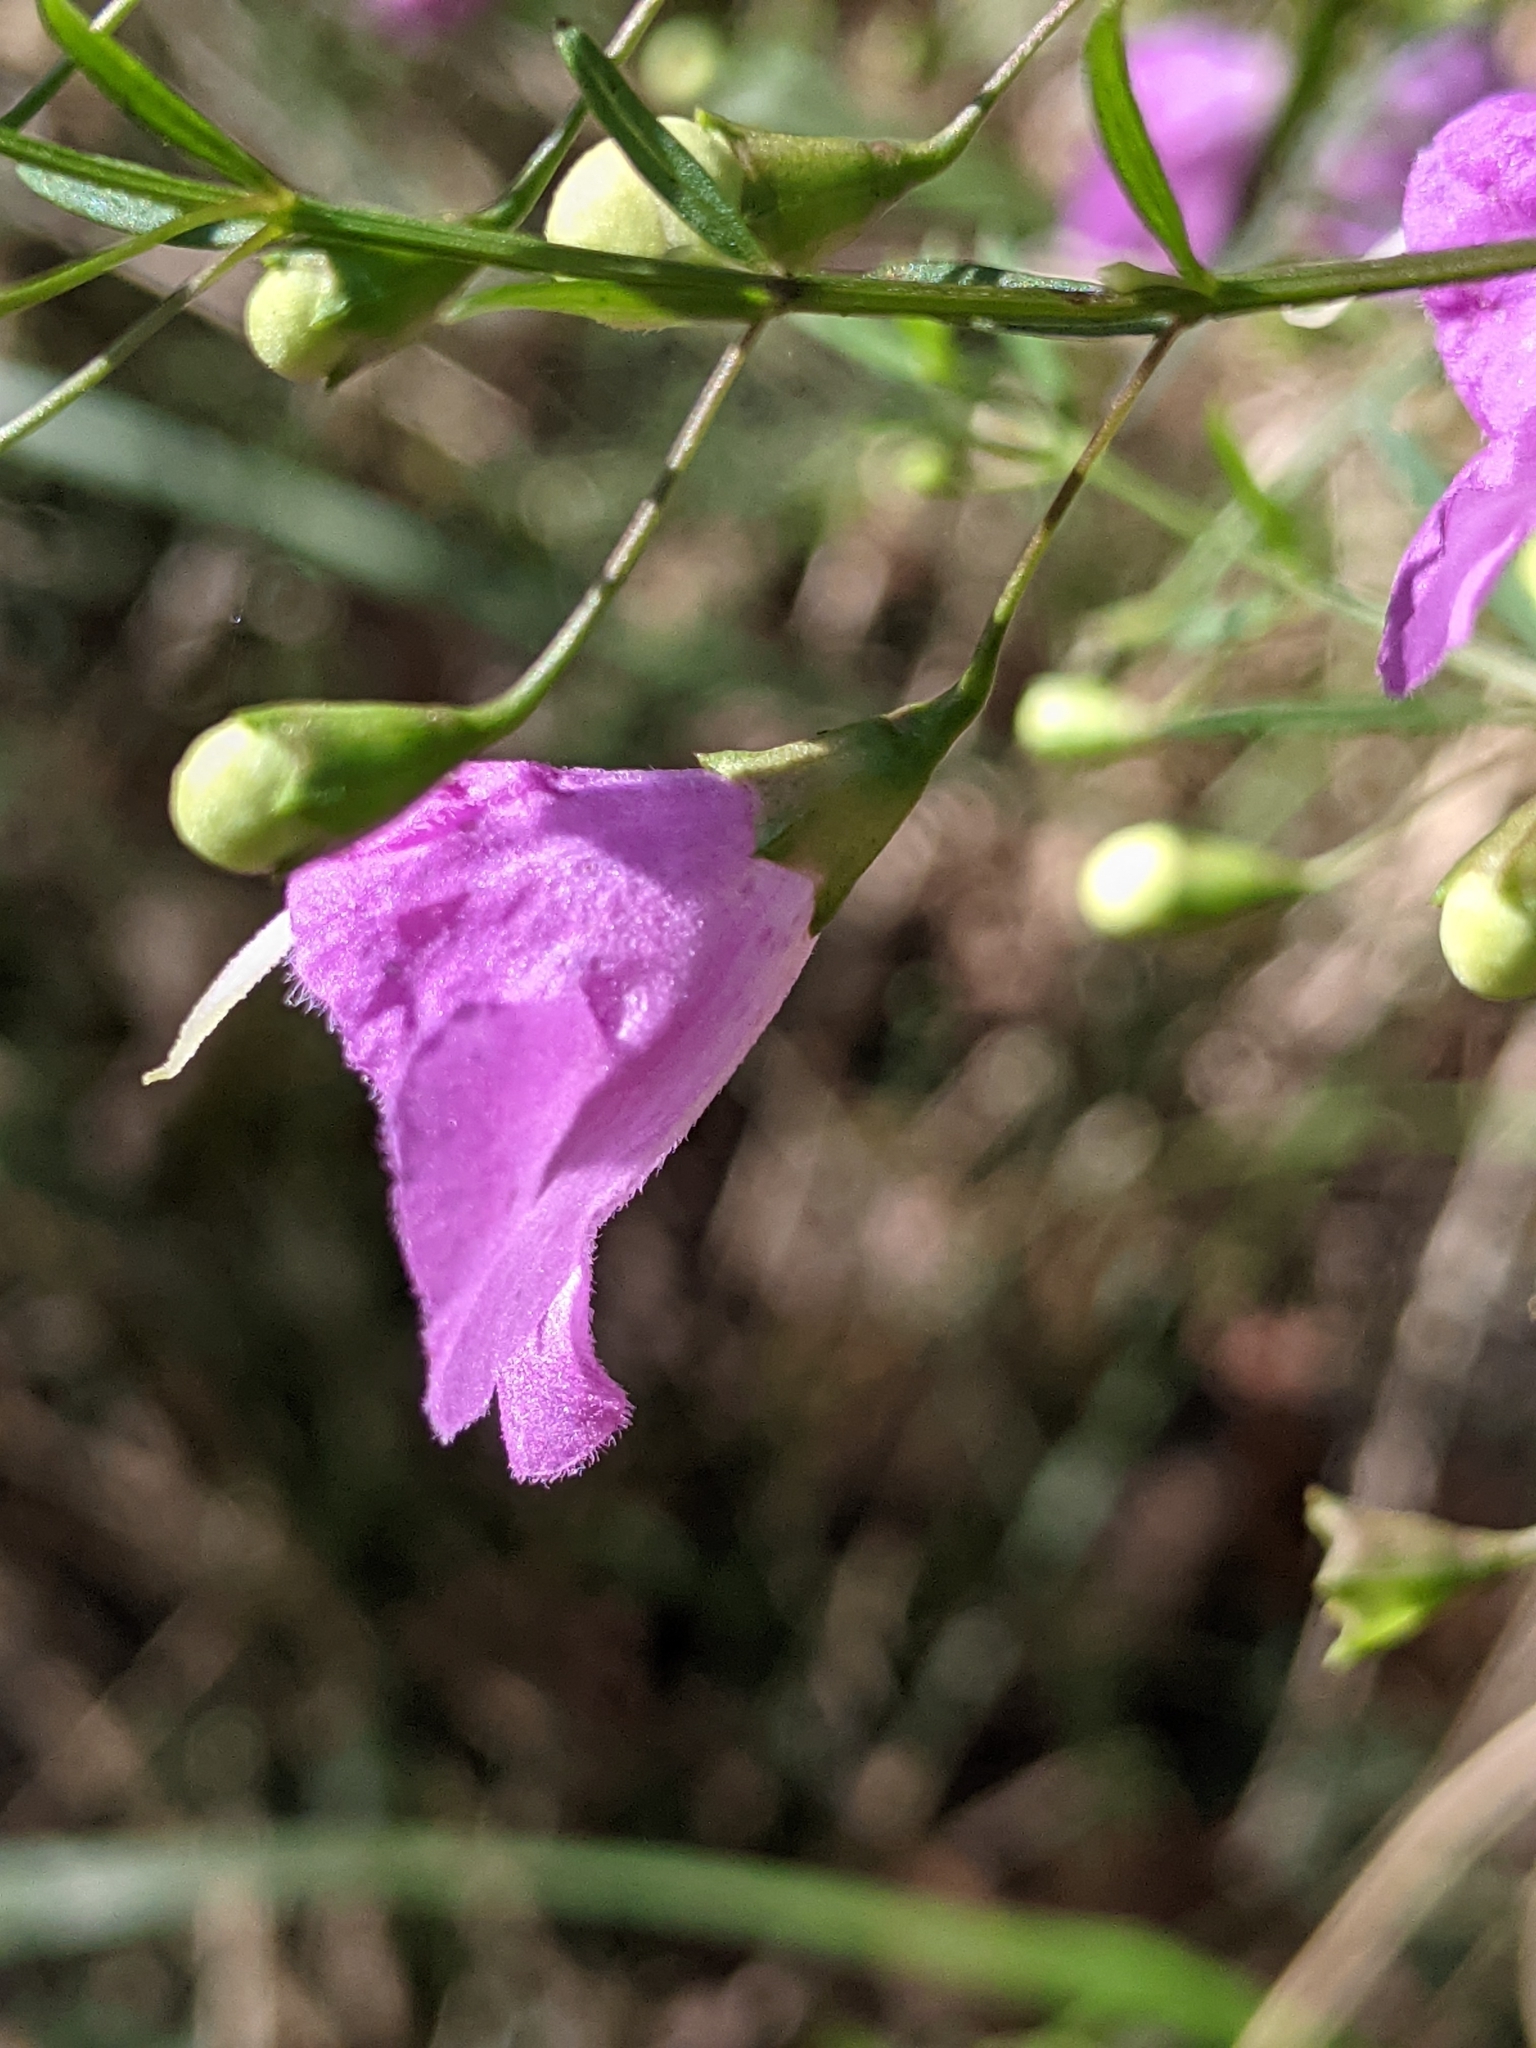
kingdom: Plantae
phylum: Tracheophyta
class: Magnoliopsida
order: Lamiales
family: Orobanchaceae
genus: Agalinis
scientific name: Agalinis tenuifolia
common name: Slender agalinis
